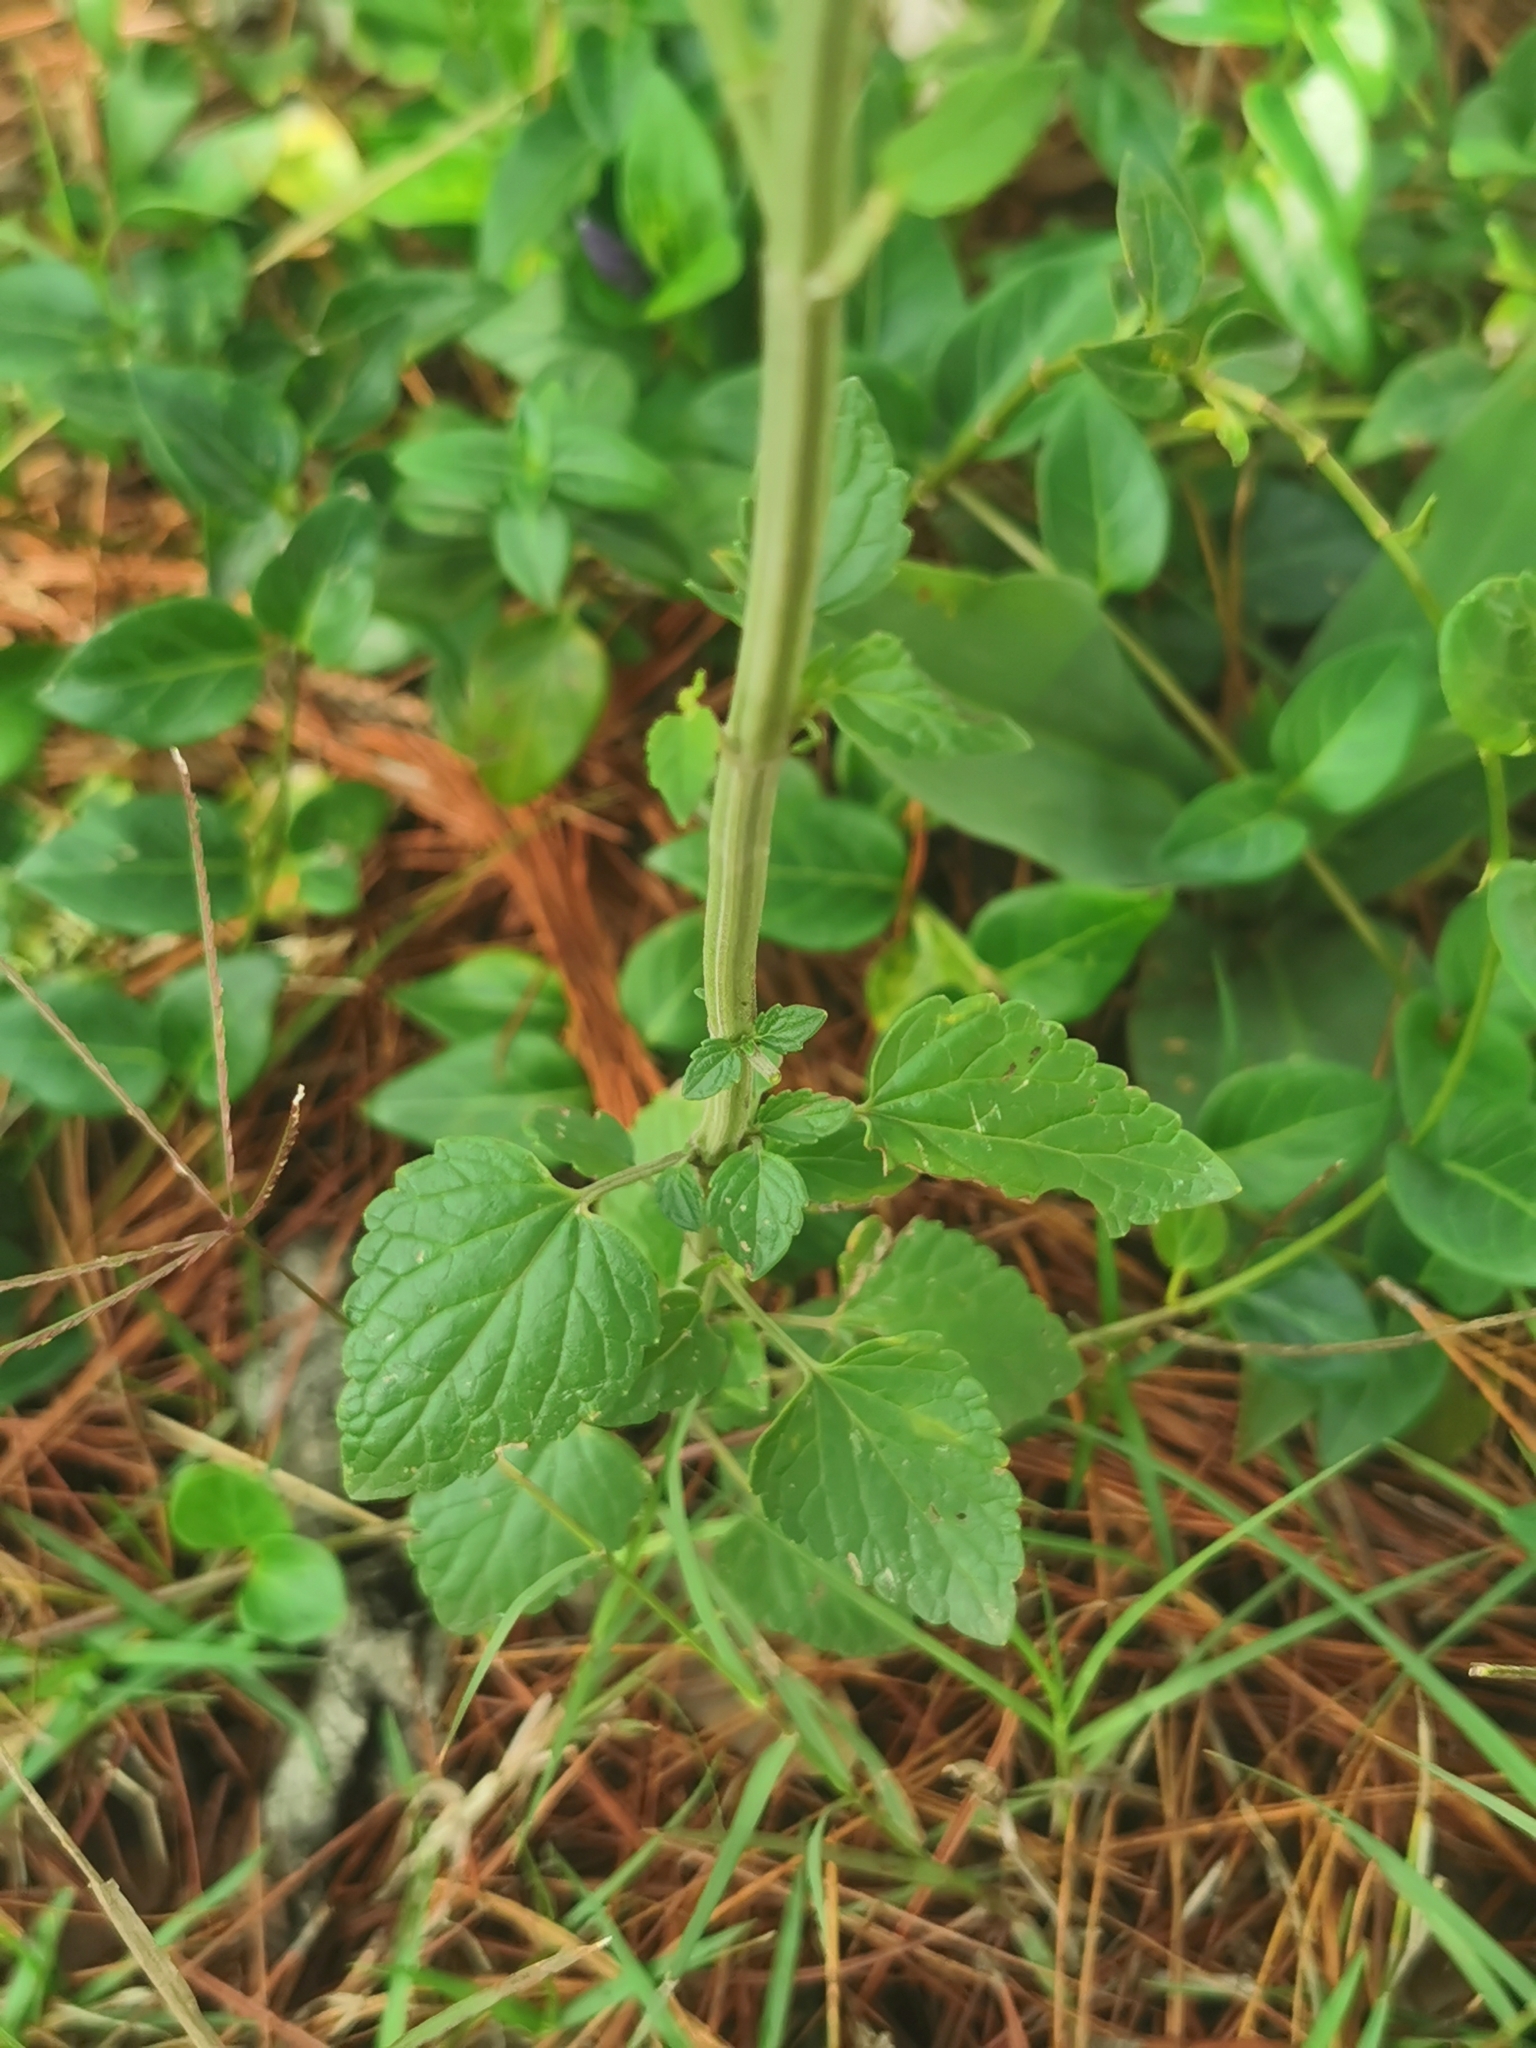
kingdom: Plantae
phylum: Tracheophyta
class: Magnoliopsida
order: Lamiales
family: Lamiaceae
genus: Agastache
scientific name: Agastache palmeri
